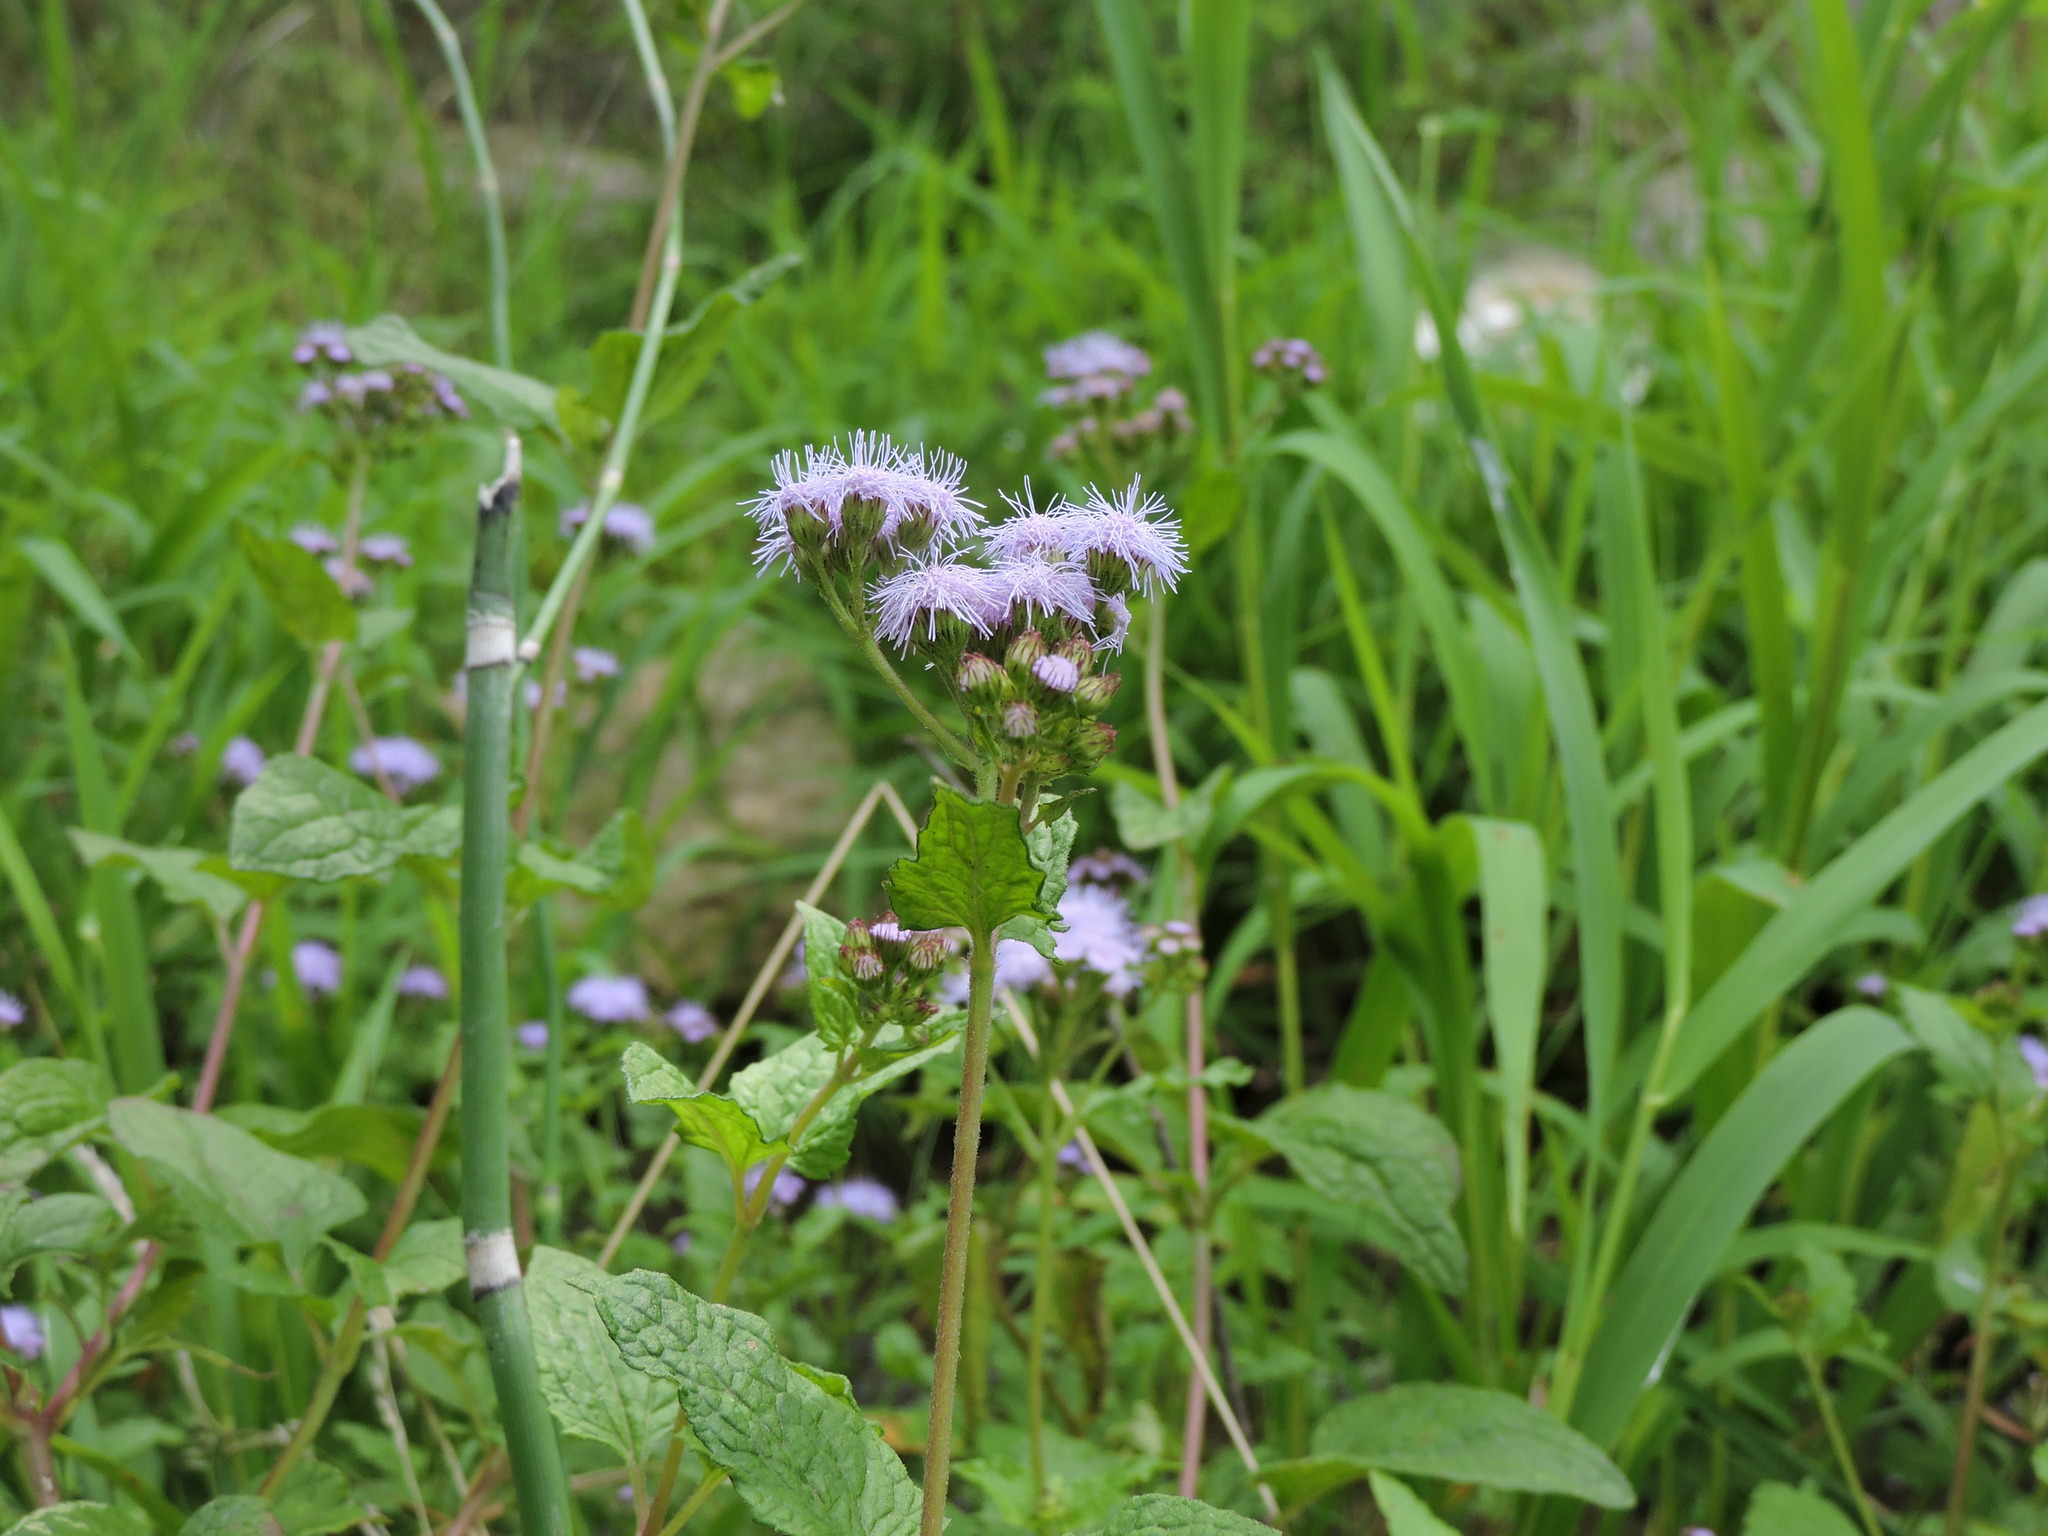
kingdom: Plantae
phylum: Tracheophyta
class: Magnoliopsida
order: Asterales
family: Asteraceae
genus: Conoclinium
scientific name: Conoclinium coelestinum
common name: Blue mistflower
